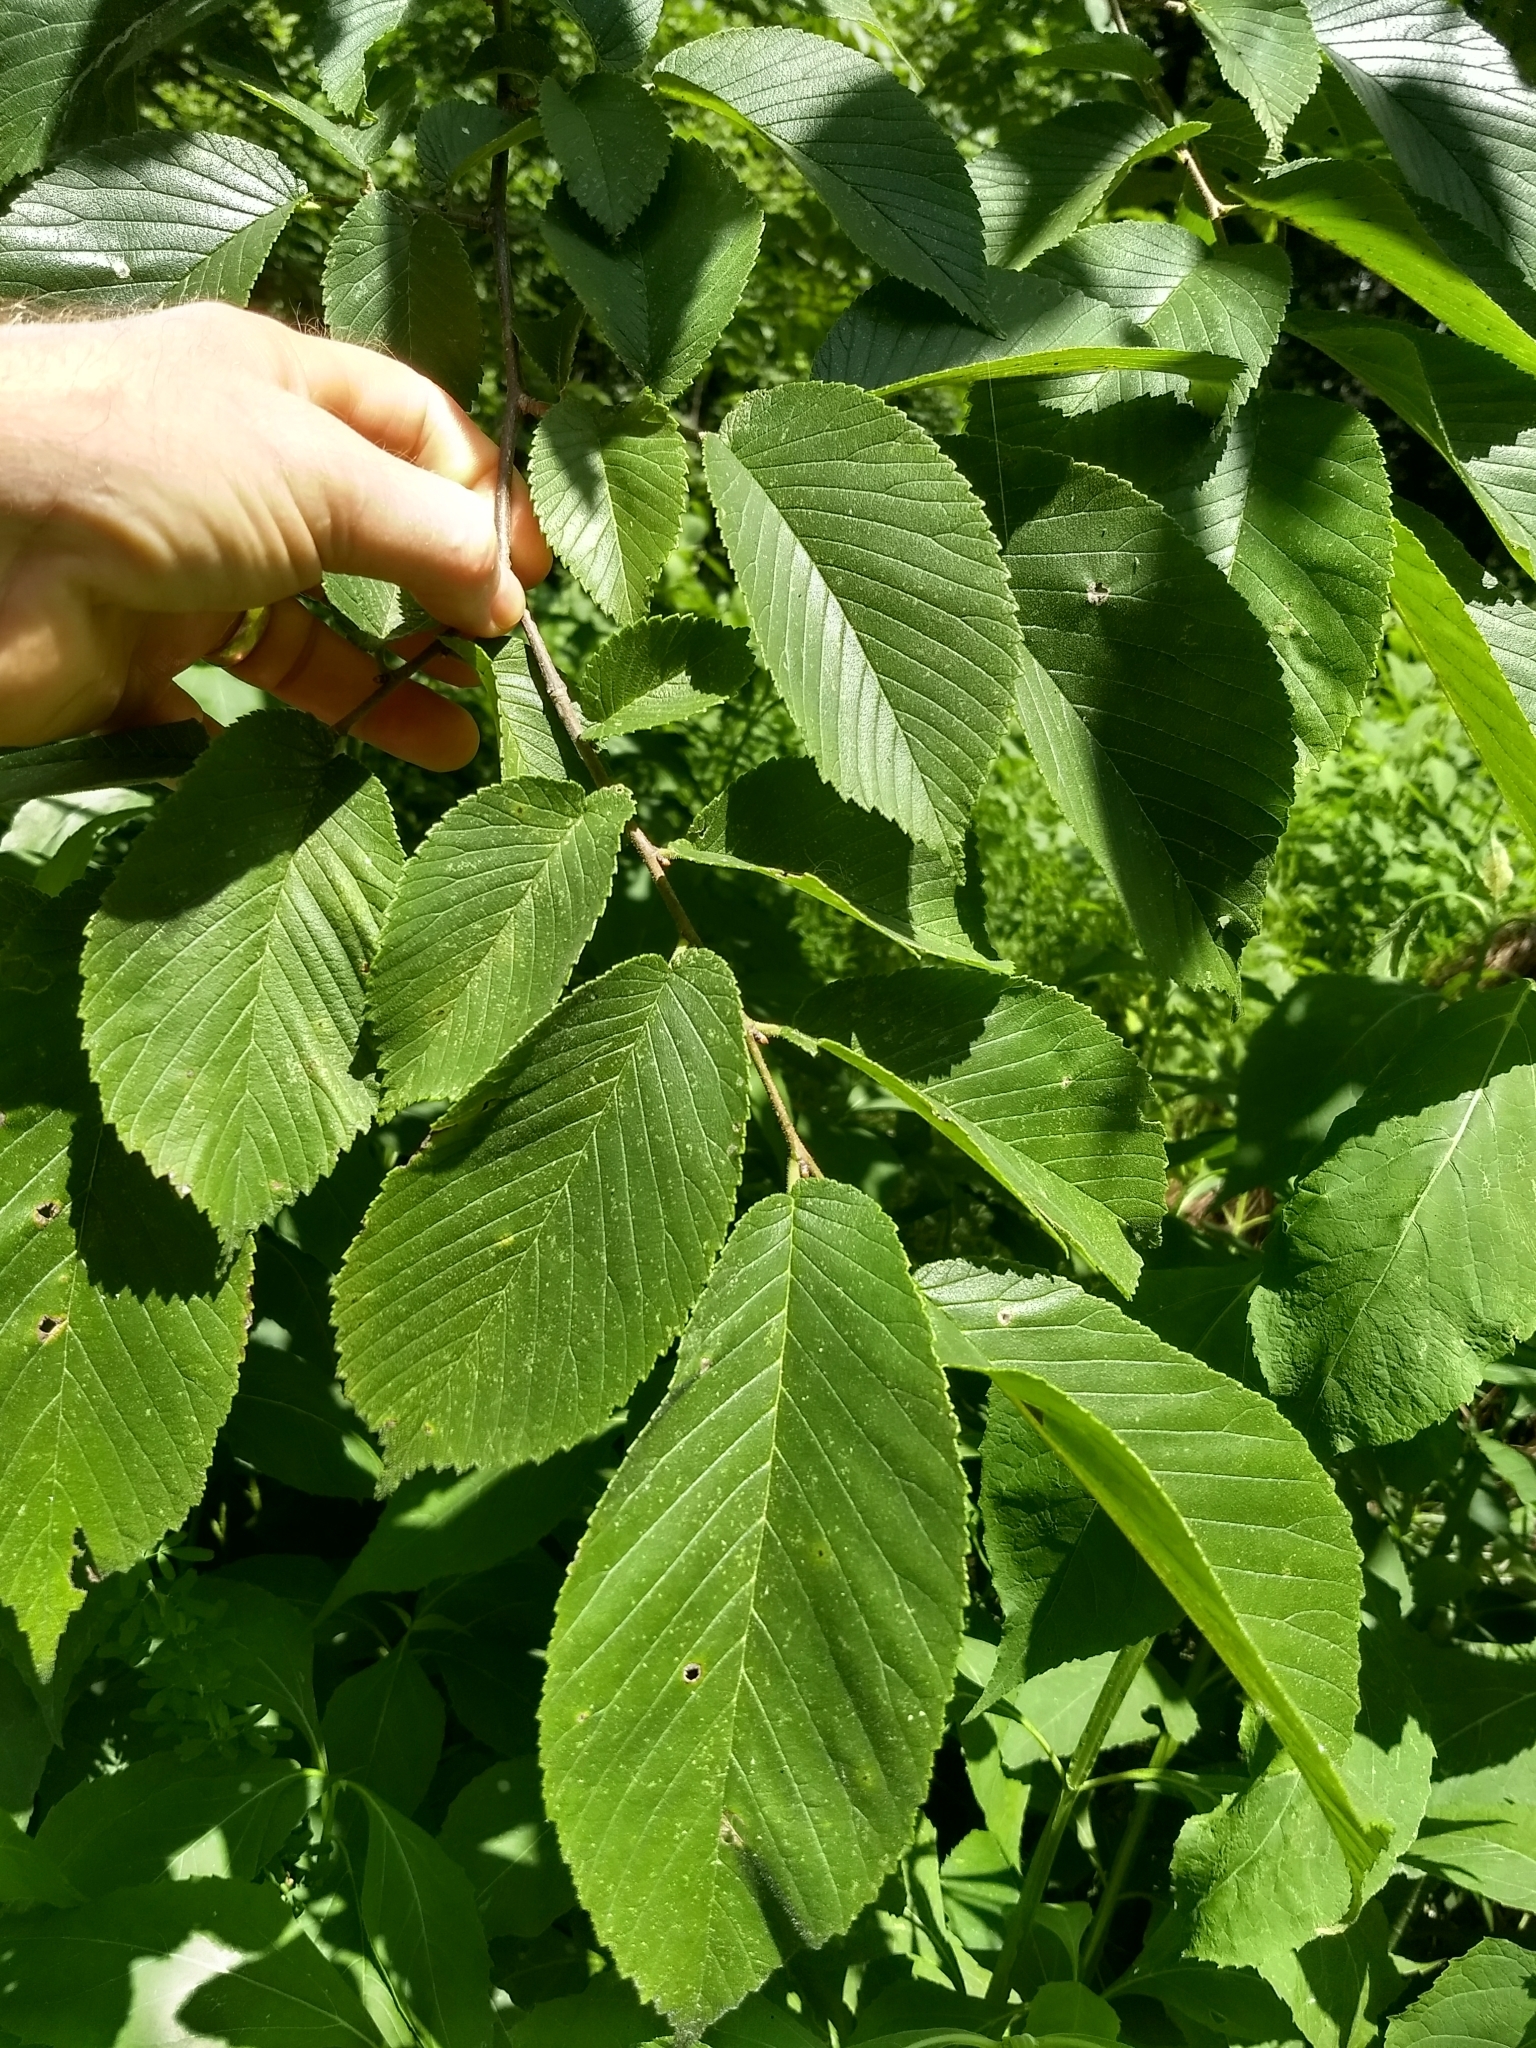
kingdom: Plantae
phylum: Tracheophyta
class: Magnoliopsida
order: Rosales
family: Ulmaceae
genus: Ulmus
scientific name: Ulmus rubra
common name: Slippery elm
